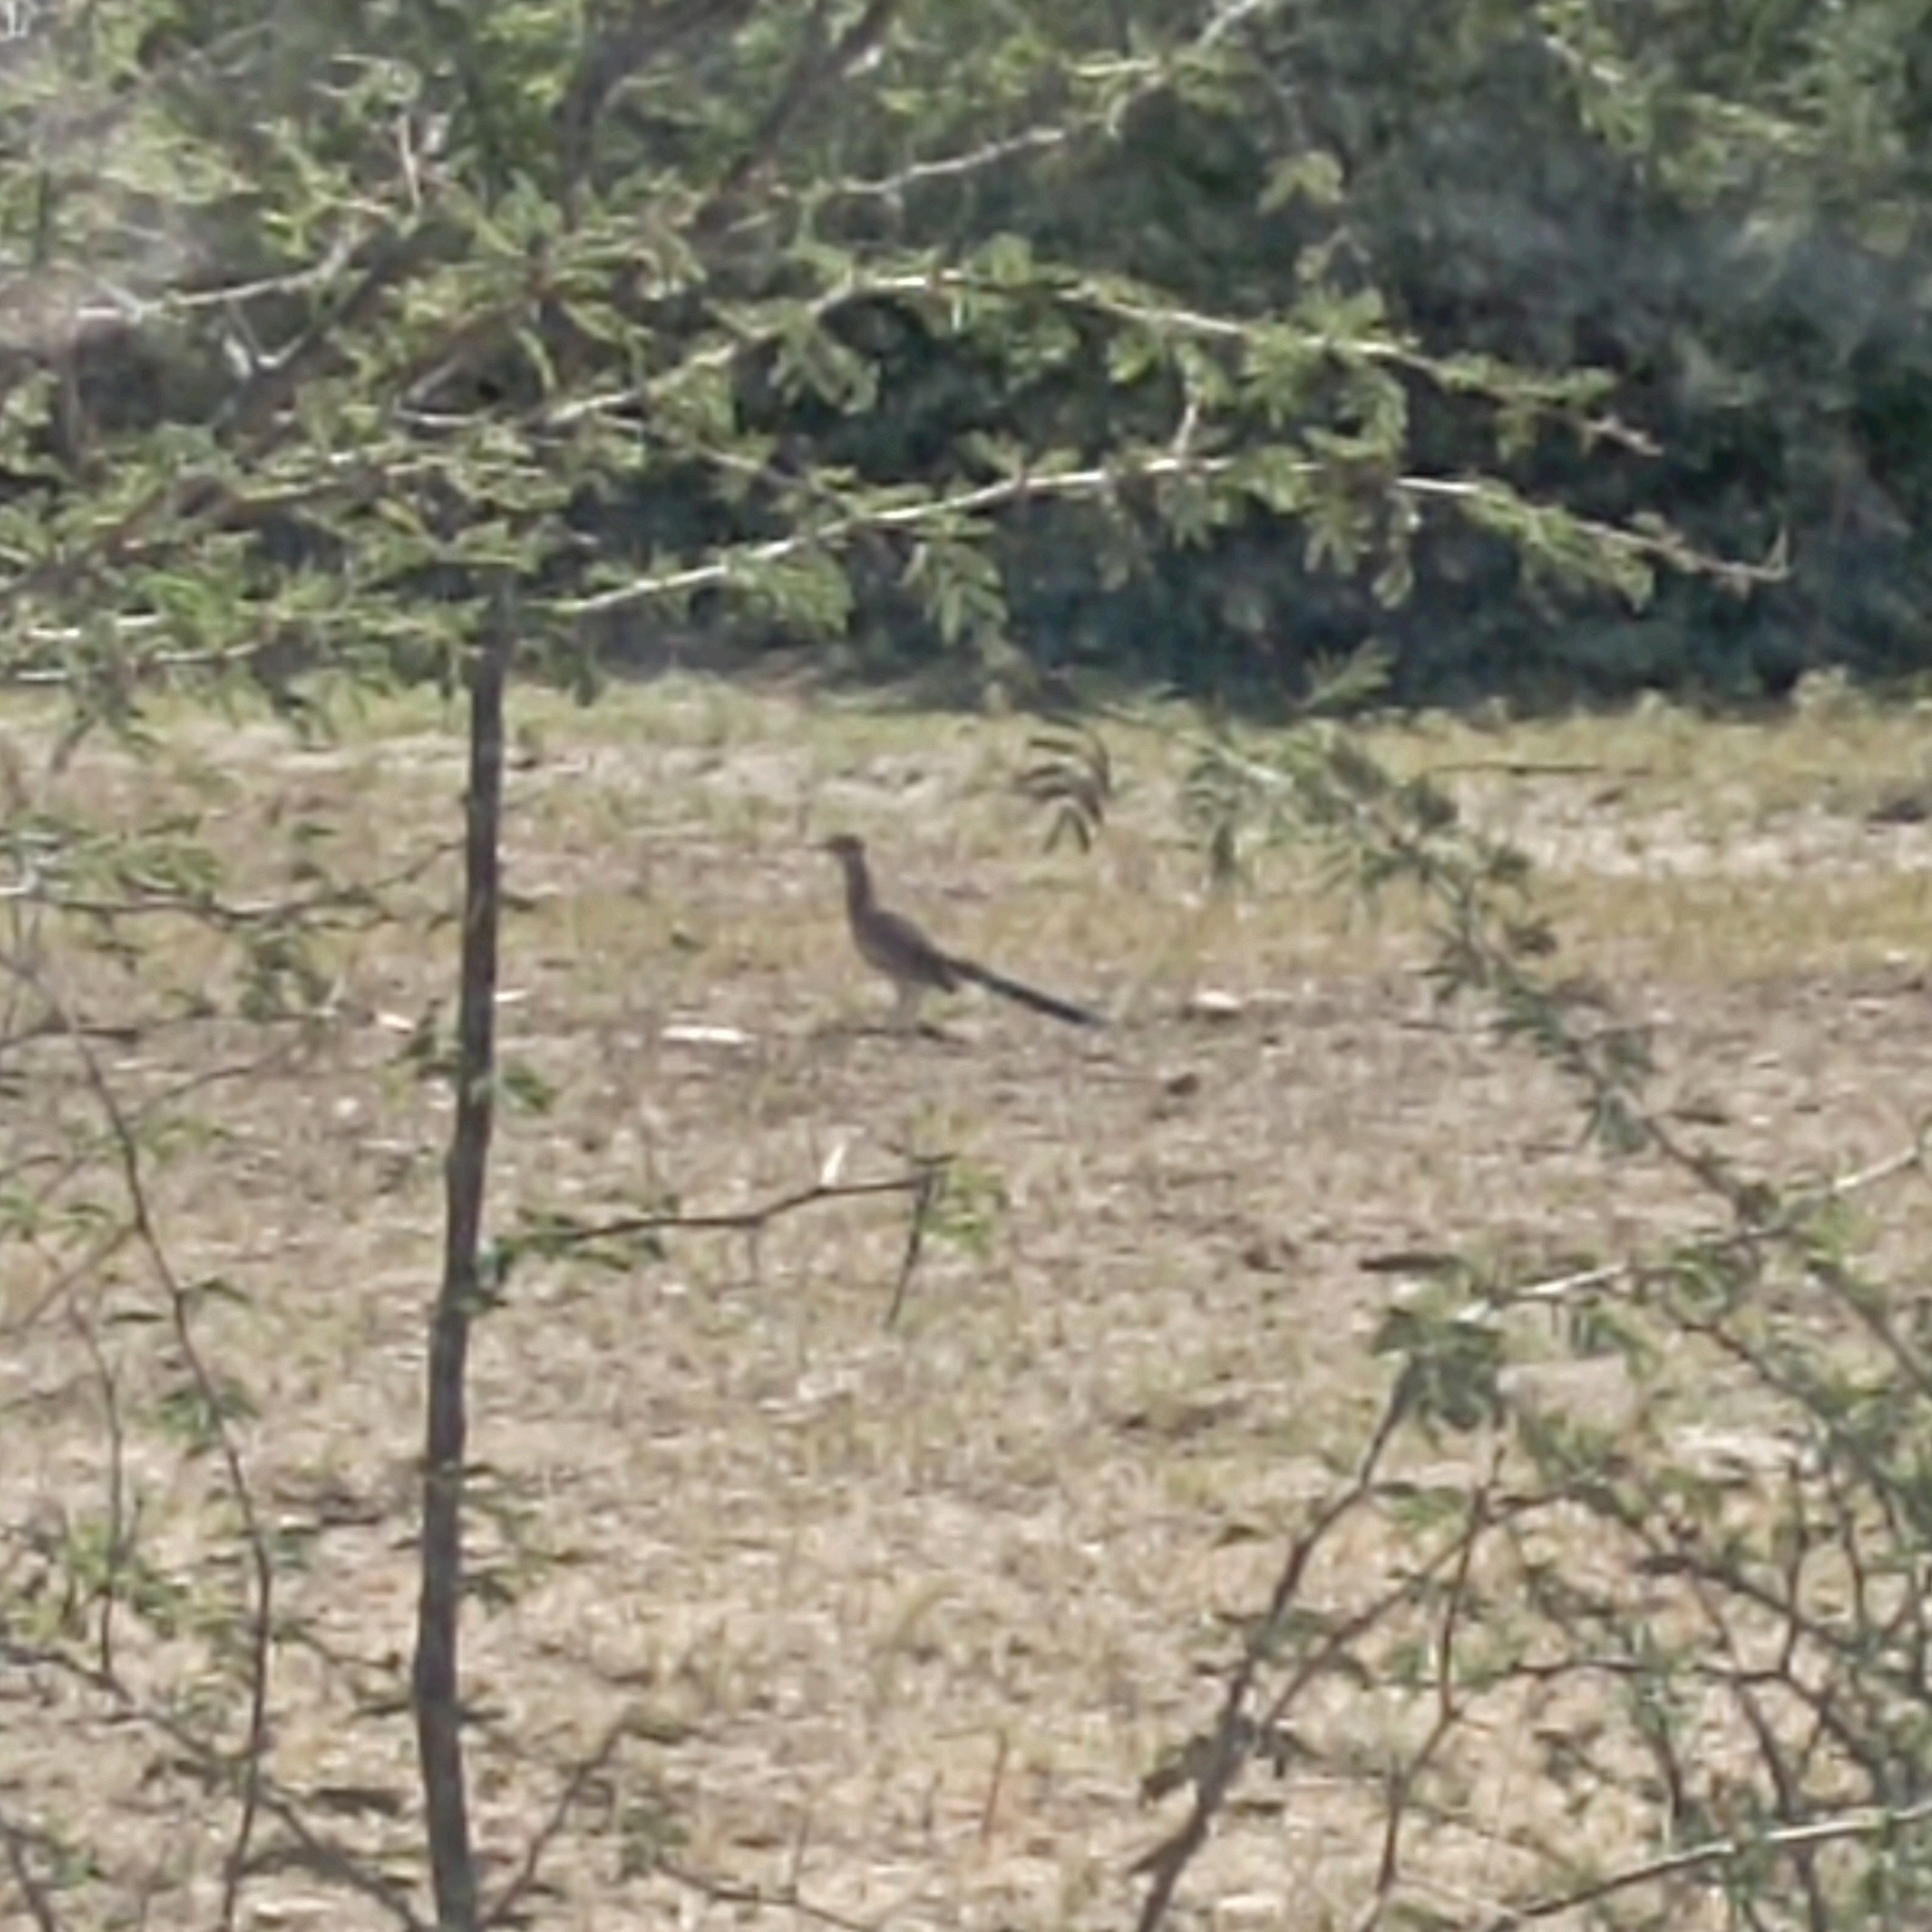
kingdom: Animalia
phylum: Chordata
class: Aves
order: Cuculiformes
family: Cuculidae
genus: Geococcyx
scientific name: Geococcyx californianus
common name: Greater roadrunner
